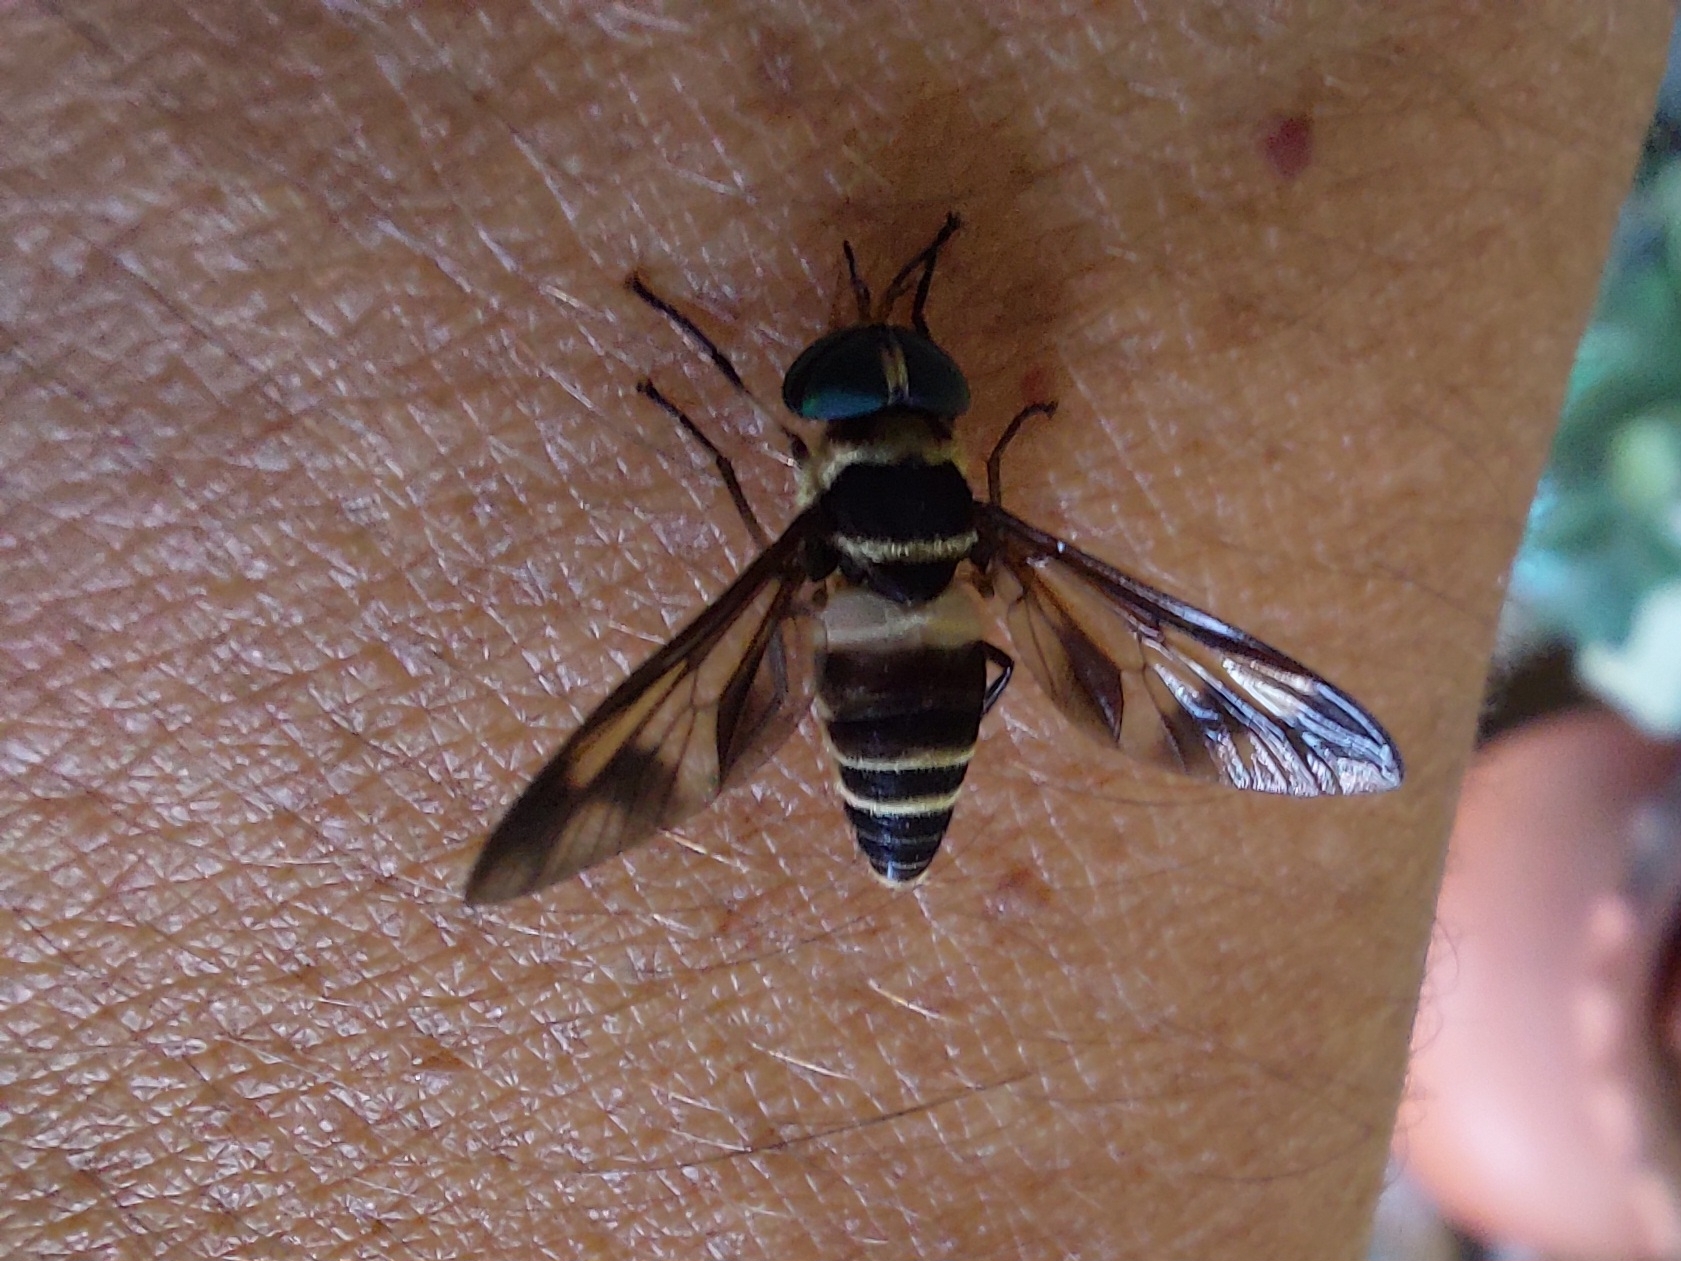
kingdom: Animalia
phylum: Arthropoda
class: Insecta
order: Diptera
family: Tabanidae
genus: Dichelacera
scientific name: Dichelacera fasciata
